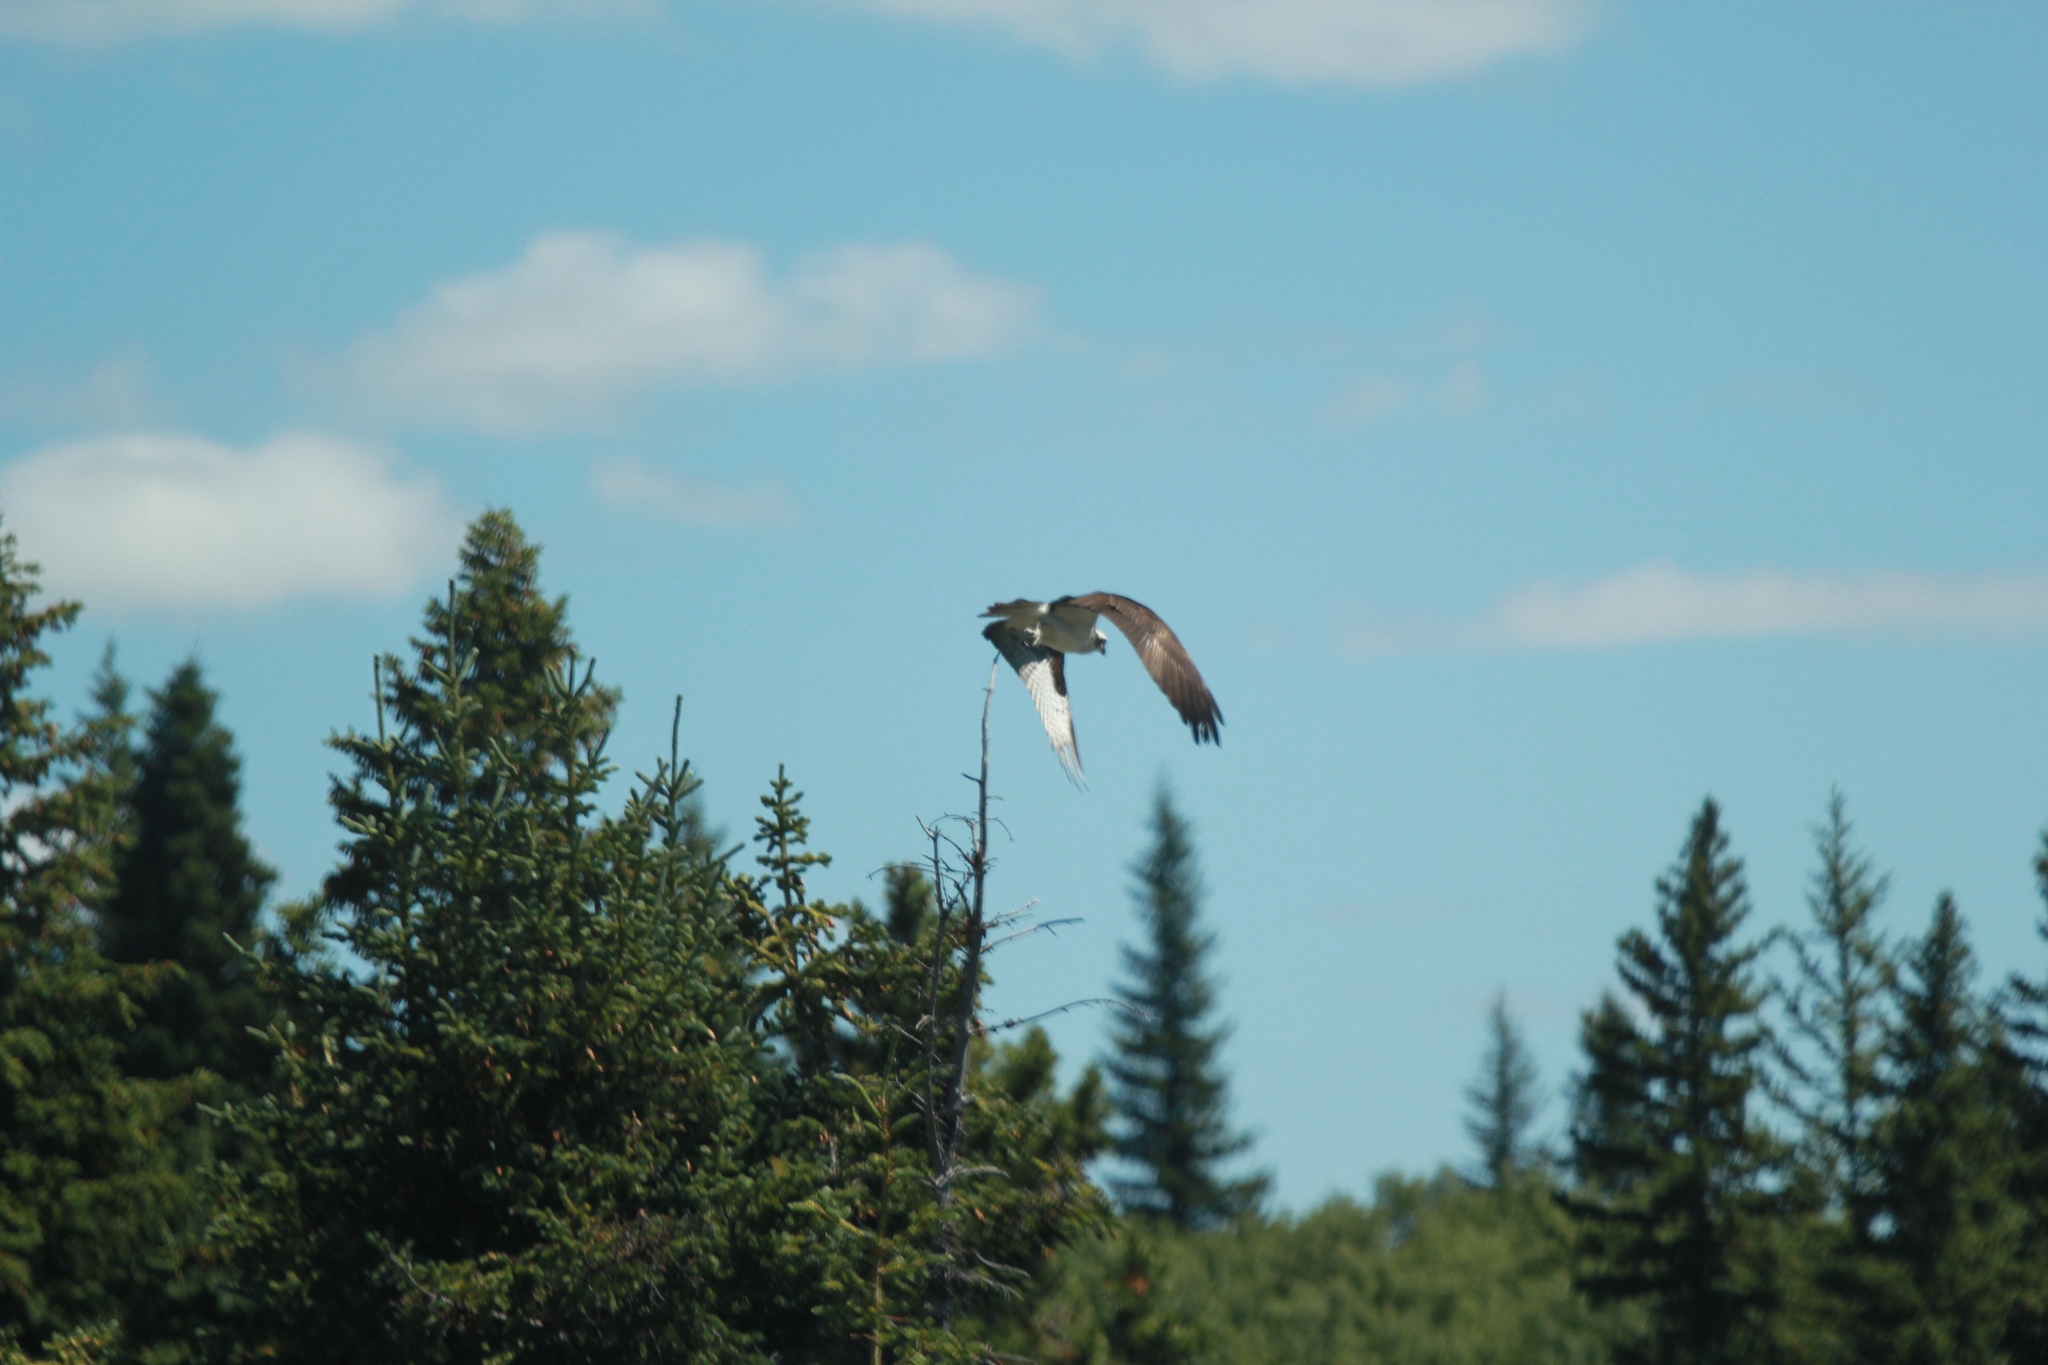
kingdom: Animalia
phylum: Chordata
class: Aves
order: Accipitriformes
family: Pandionidae
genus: Pandion
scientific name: Pandion haliaetus
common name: Osprey
